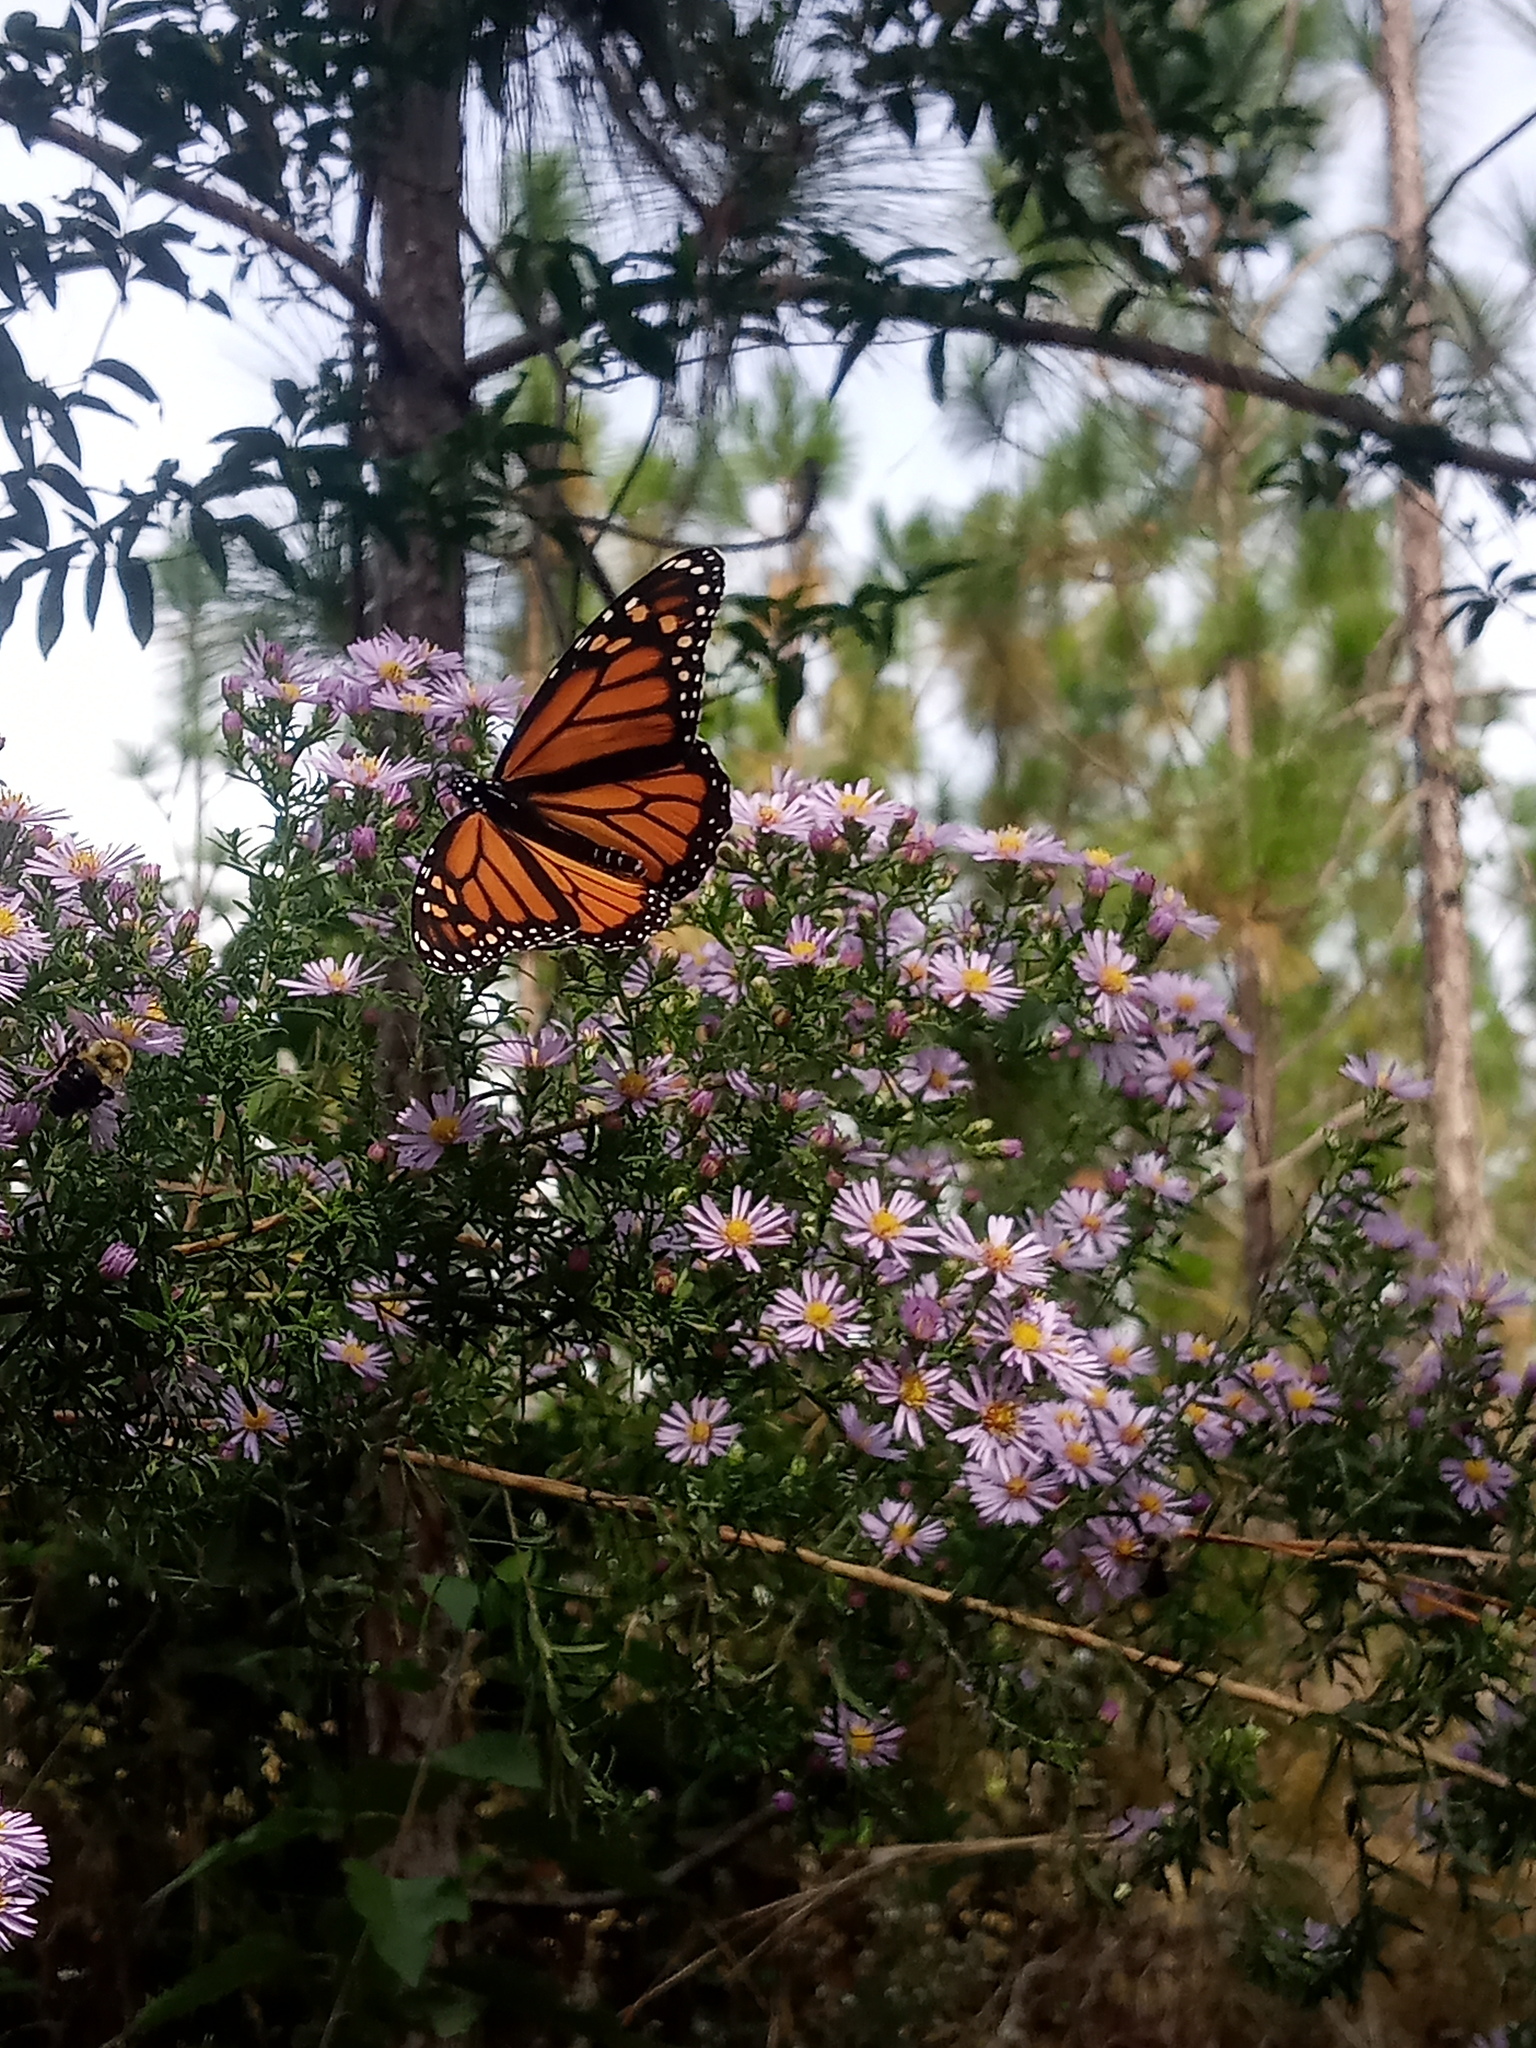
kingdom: Animalia
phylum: Arthropoda
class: Insecta
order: Lepidoptera
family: Nymphalidae
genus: Danaus
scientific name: Danaus plexippus
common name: Monarch
